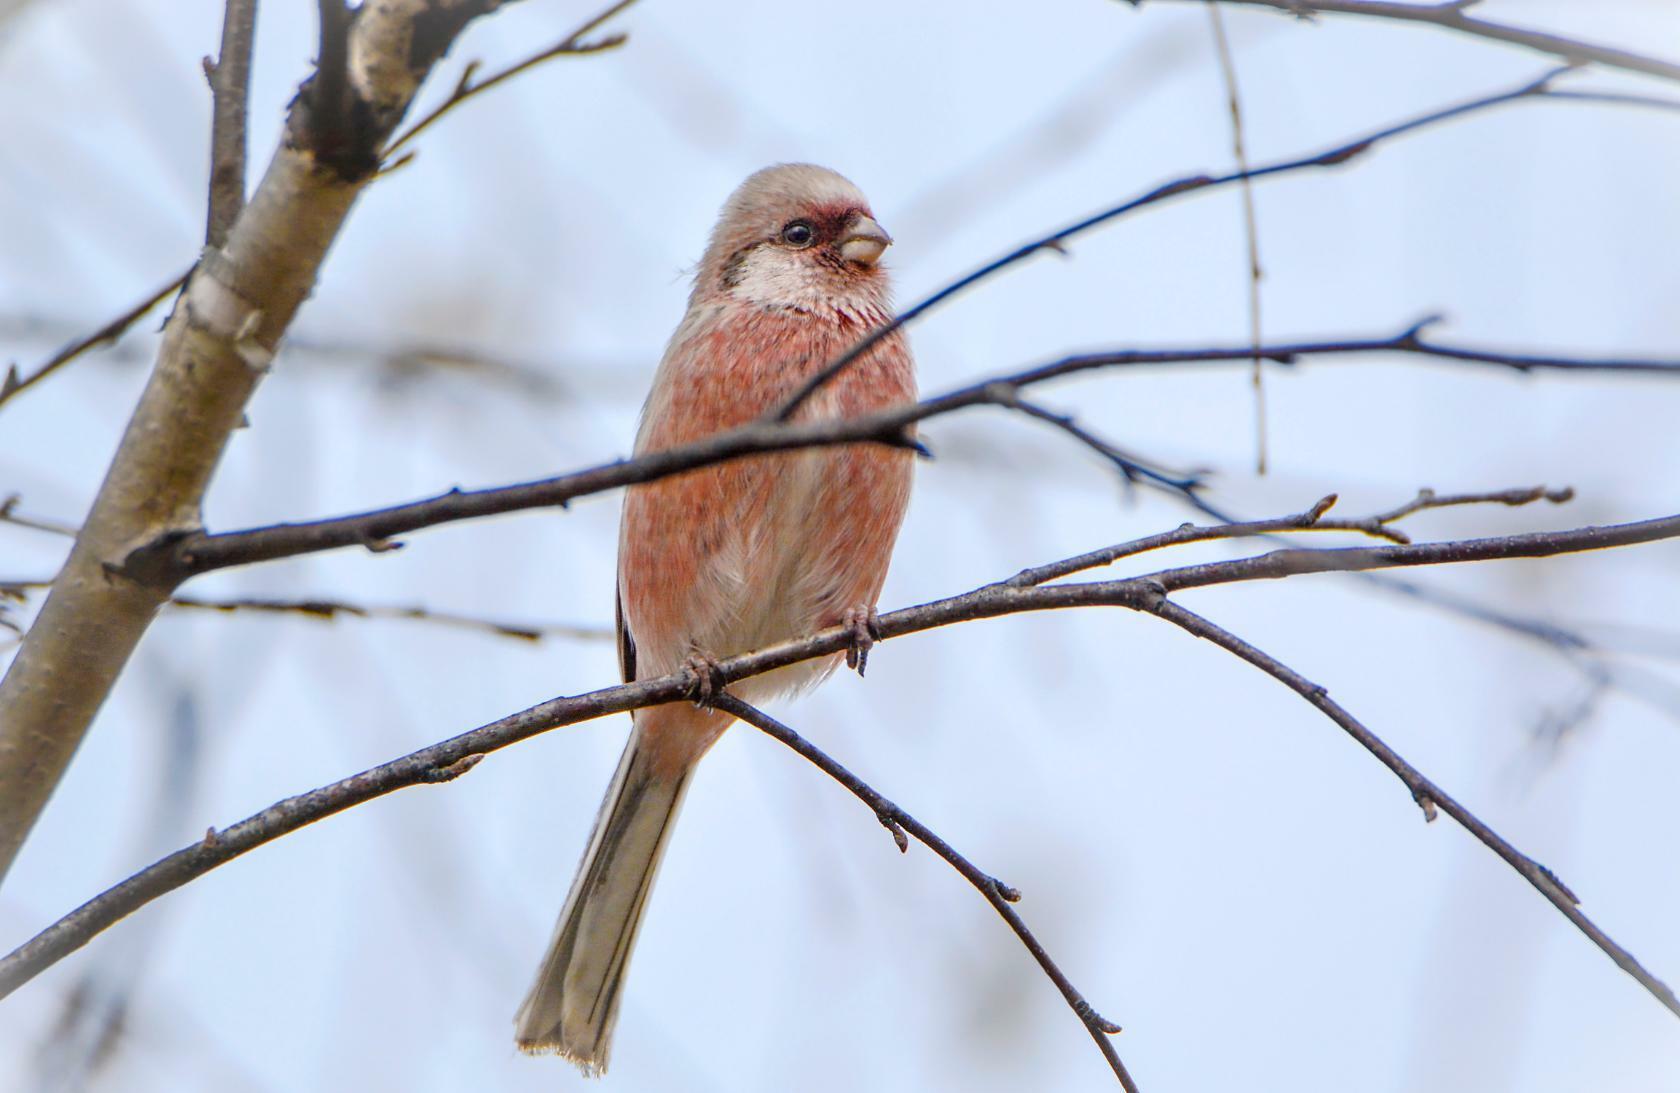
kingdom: Animalia
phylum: Chordata
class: Aves
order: Passeriformes
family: Fringillidae
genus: Carpodacus
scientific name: Carpodacus sibiricus
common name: Long-tailed rosefinch
